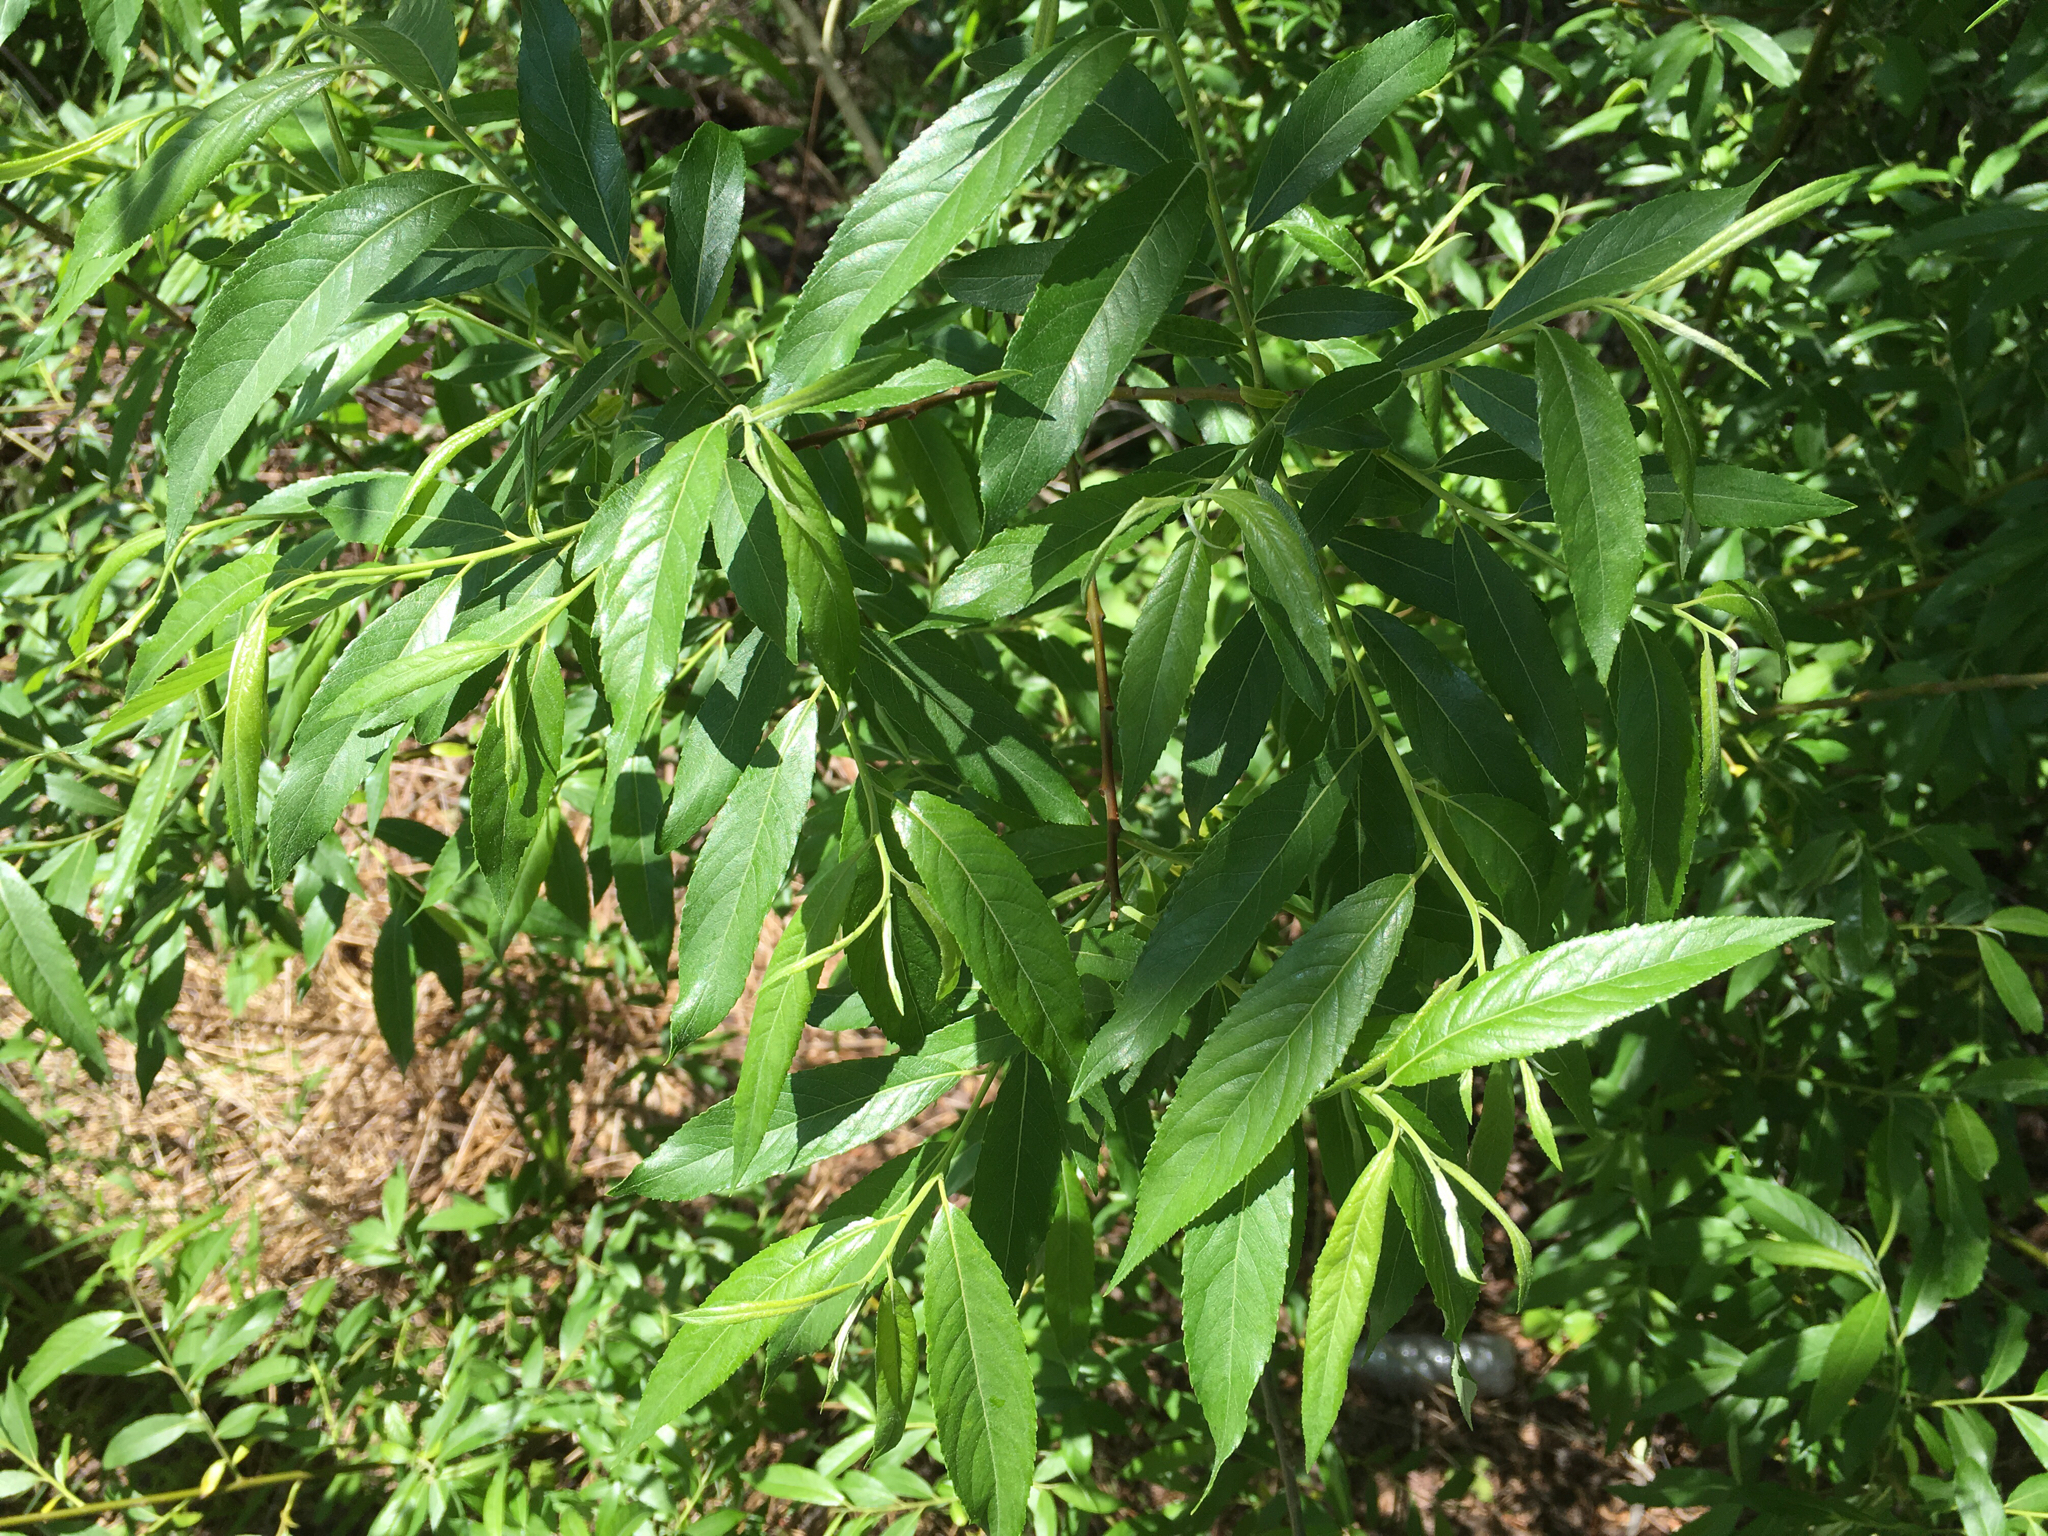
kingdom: Plantae
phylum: Tracheophyta
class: Magnoliopsida
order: Malpighiales
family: Salicaceae
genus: Salix
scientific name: Salix sericea
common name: Silky willow
